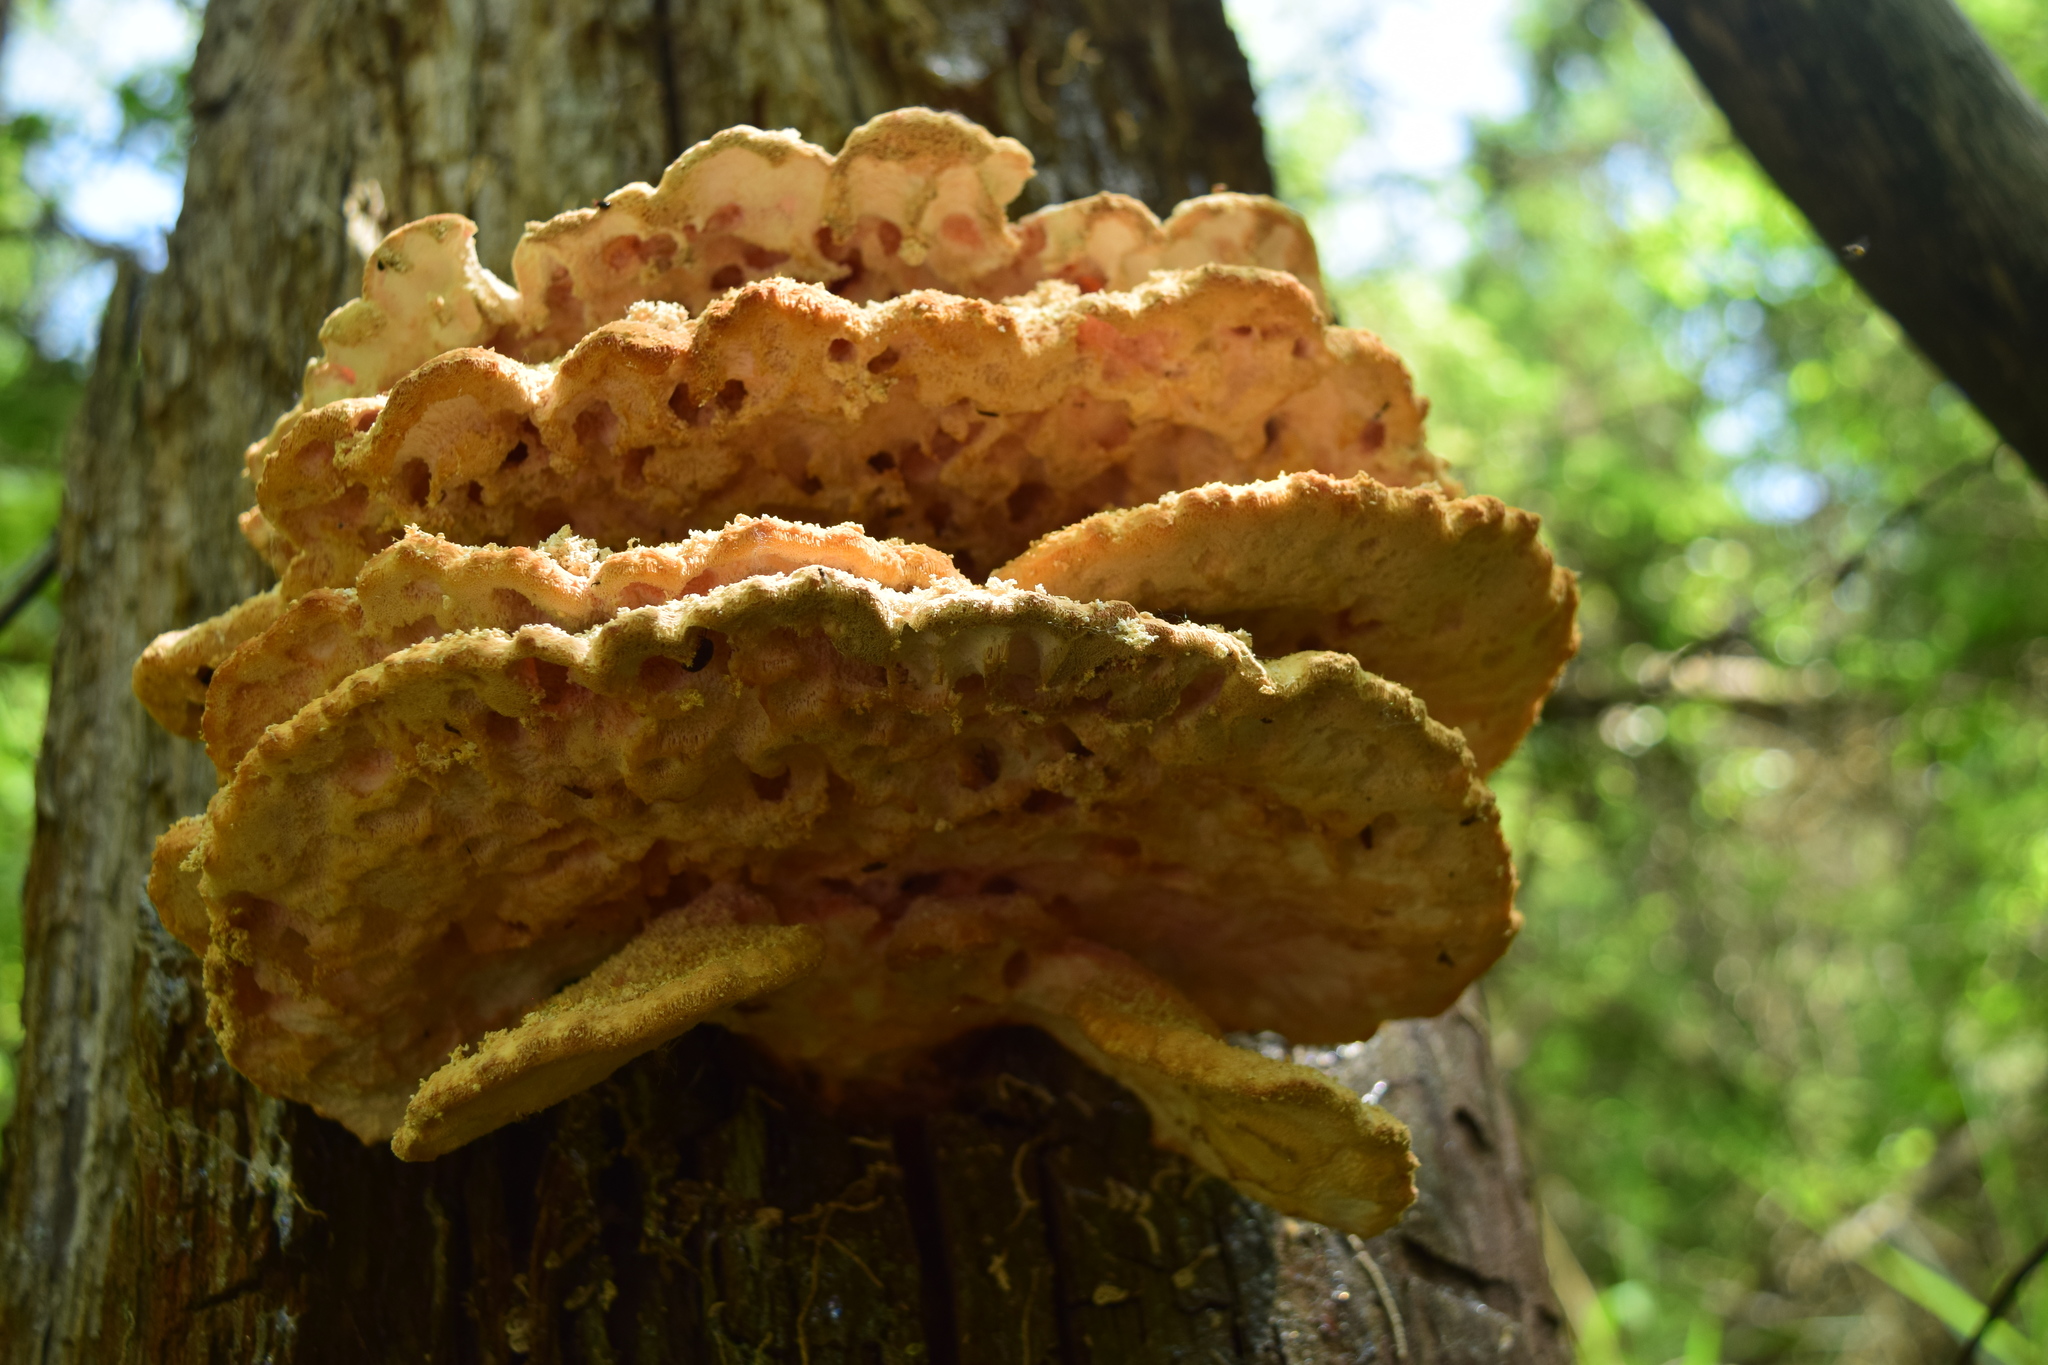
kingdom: Fungi
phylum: Basidiomycota
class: Agaricomycetes
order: Polyporales
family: Laetiporaceae
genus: Laetiporus
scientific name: Laetiporus sulphureus
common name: Chicken of the woods
